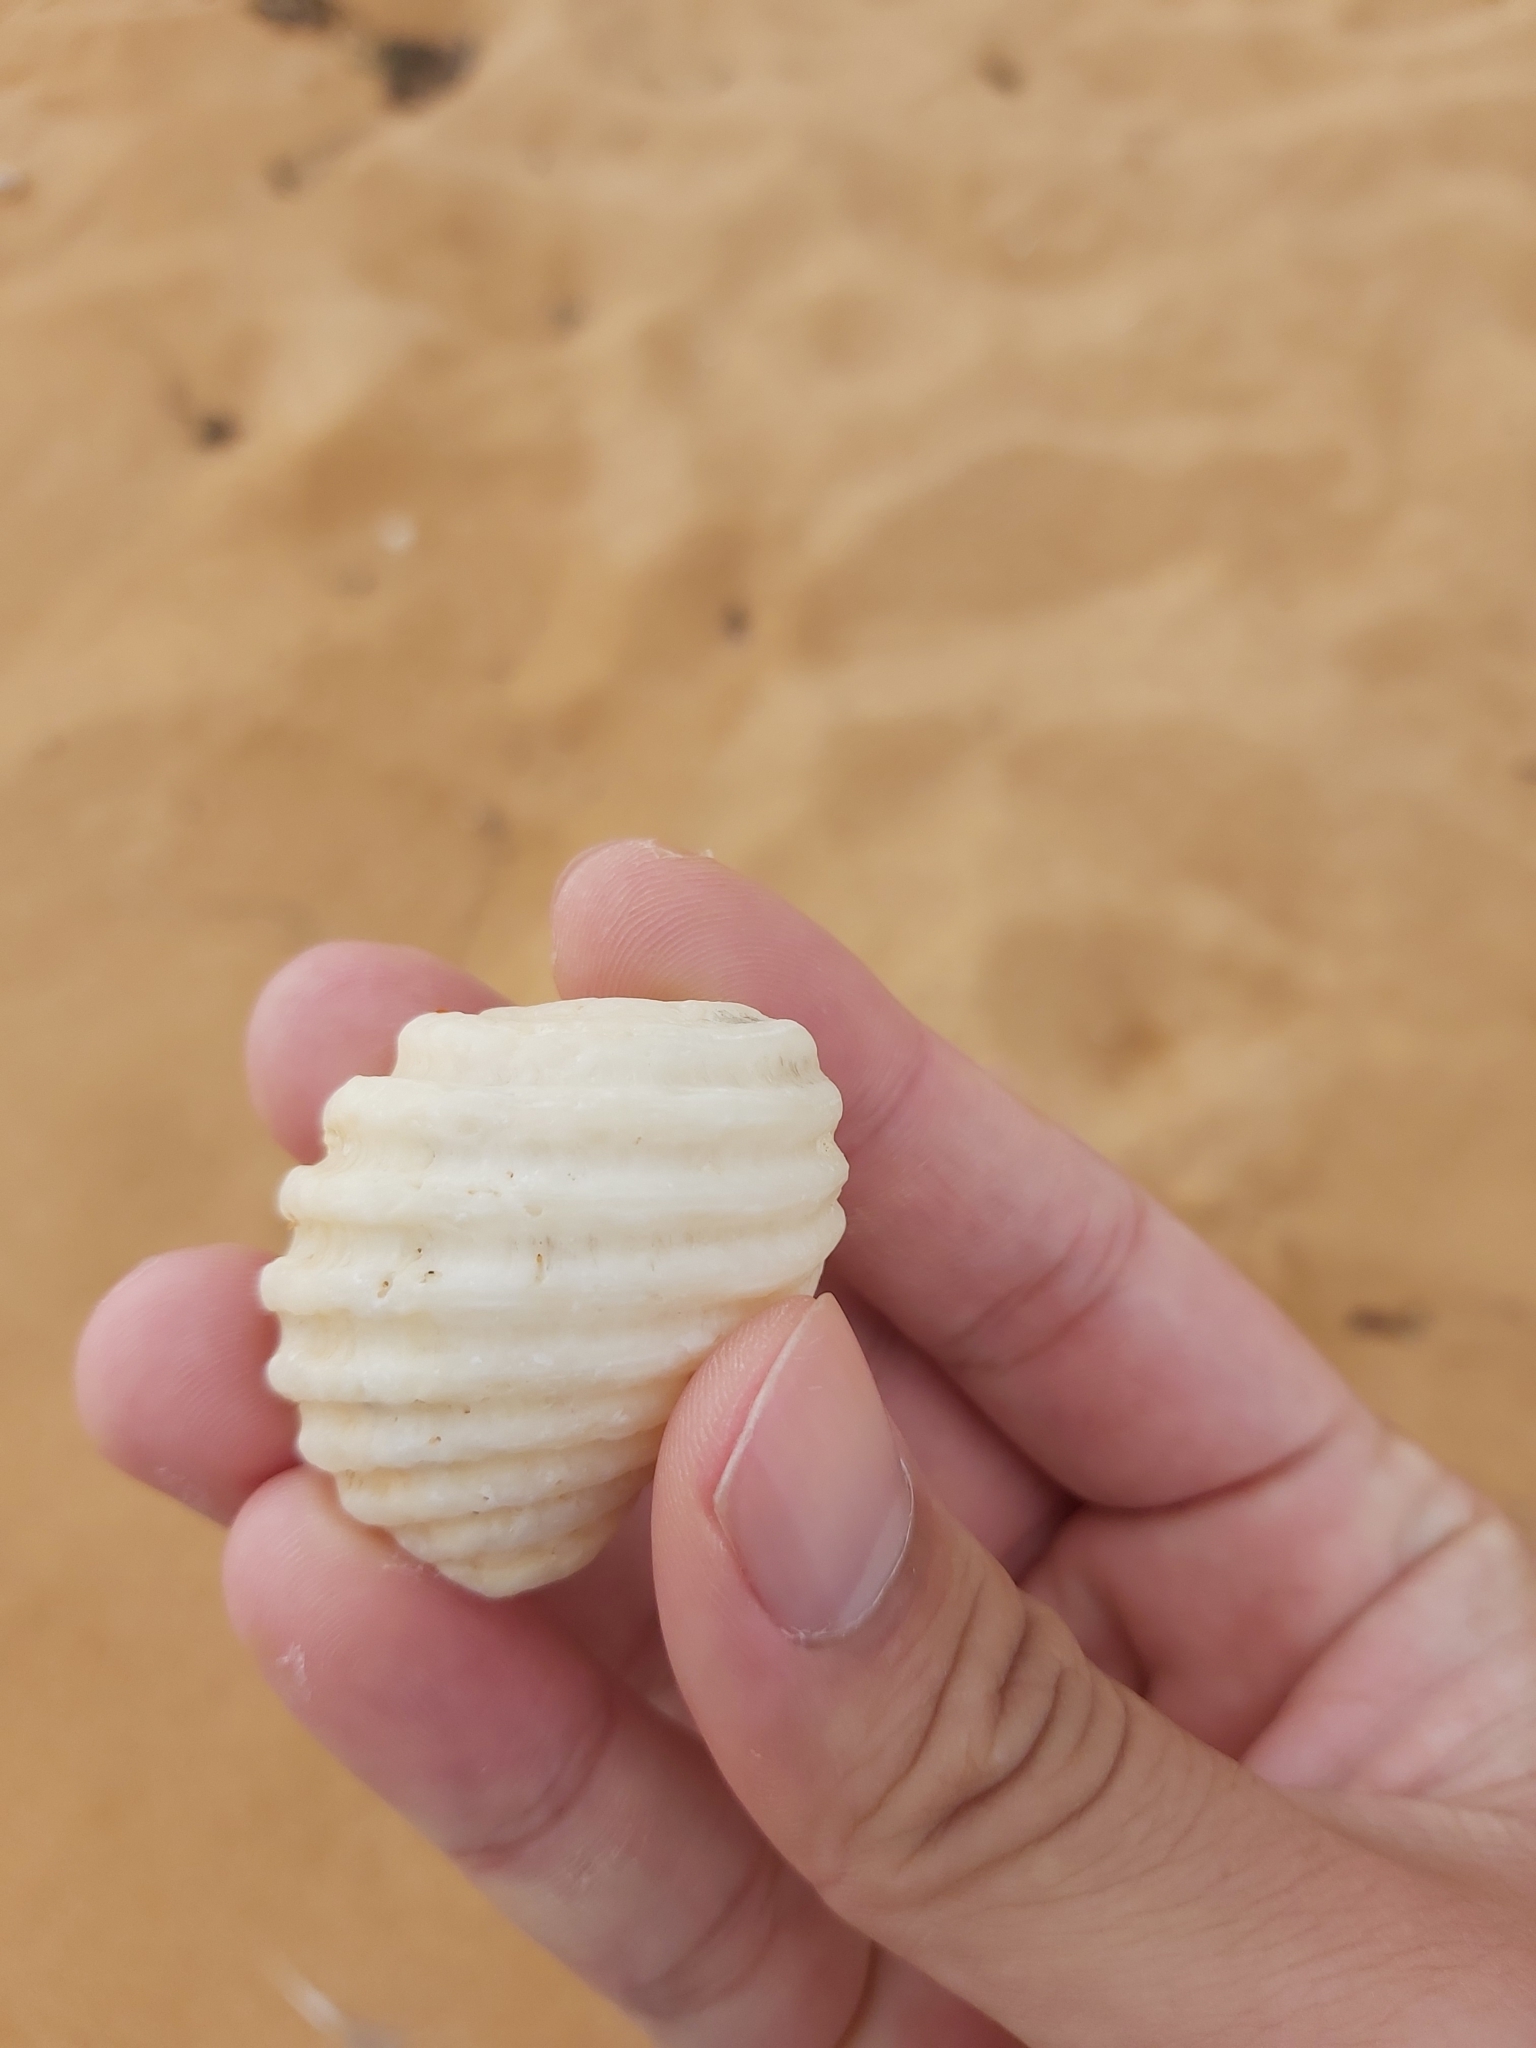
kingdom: Animalia
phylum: Mollusca
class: Gastropoda
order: Neogastropoda
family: Muricidae
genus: Dicathais
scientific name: Dicathais orbita
